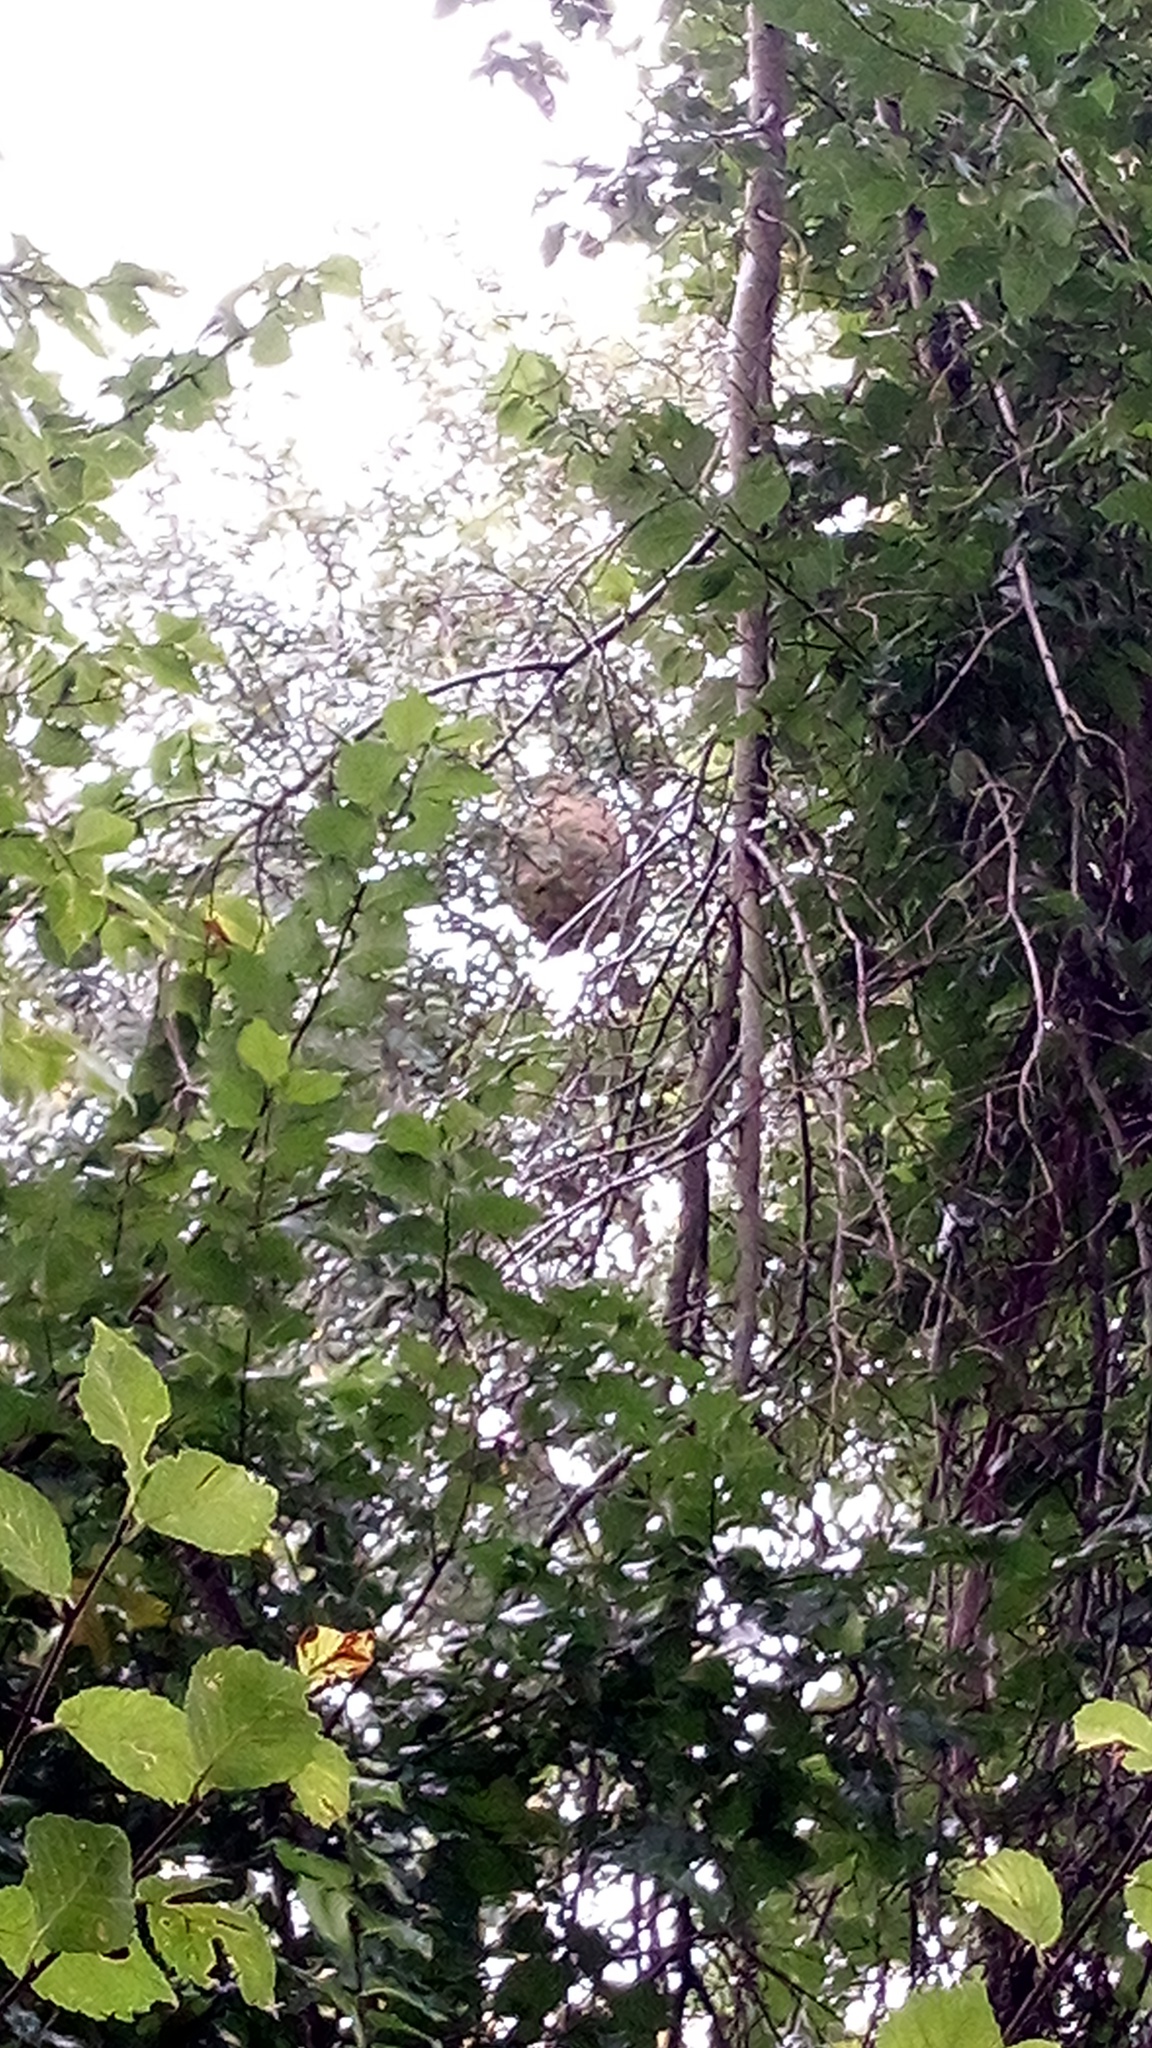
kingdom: Animalia
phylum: Arthropoda
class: Insecta
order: Hymenoptera
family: Vespidae
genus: Vespa
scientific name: Vespa velutina
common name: Asian hornet
